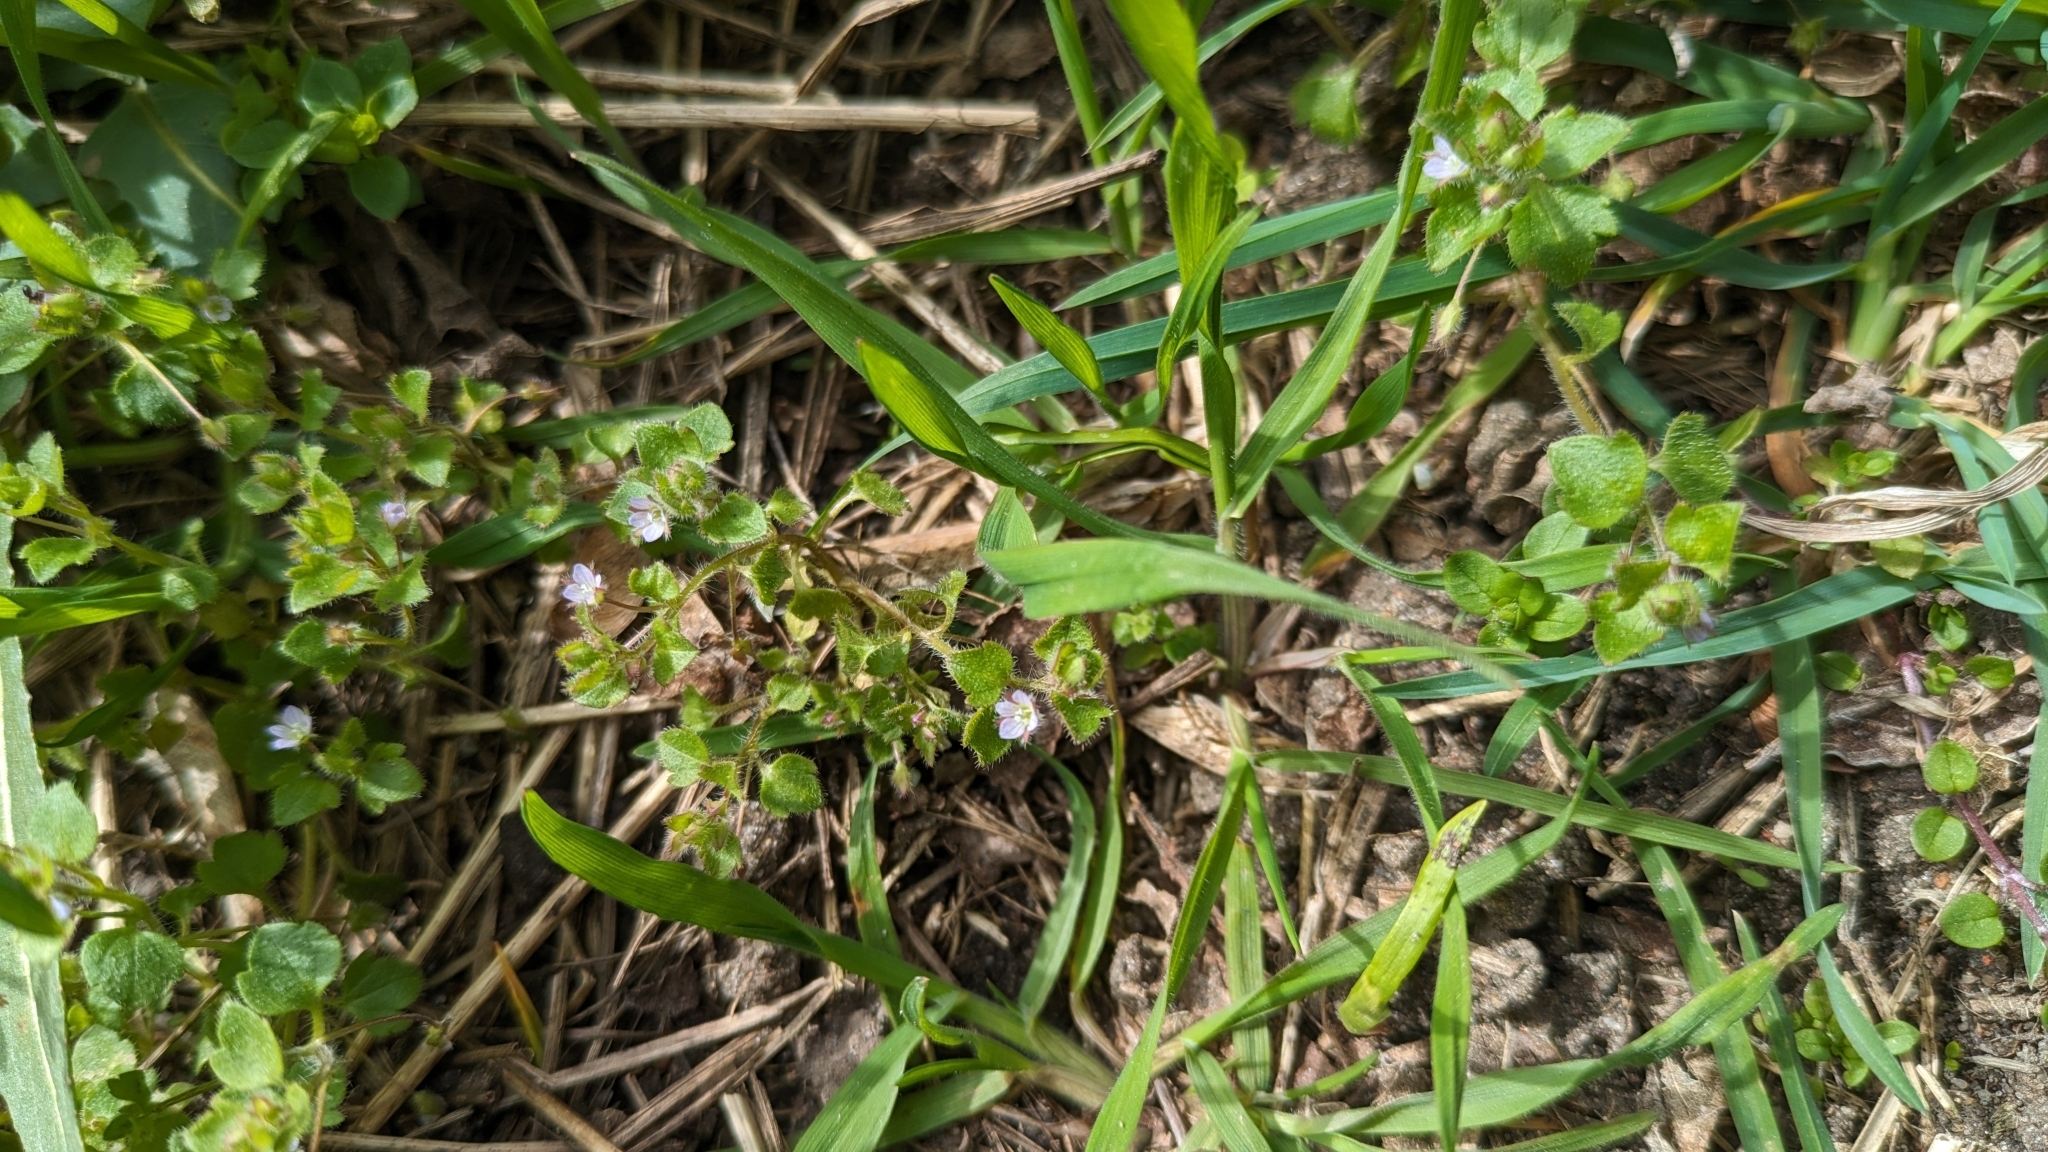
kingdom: Plantae
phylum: Tracheophyta
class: Magnoliopsida
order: Lamiales
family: Plantaginaceae
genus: Veronica
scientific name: Veronica sublobata
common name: False ivy-leaved speedwell
